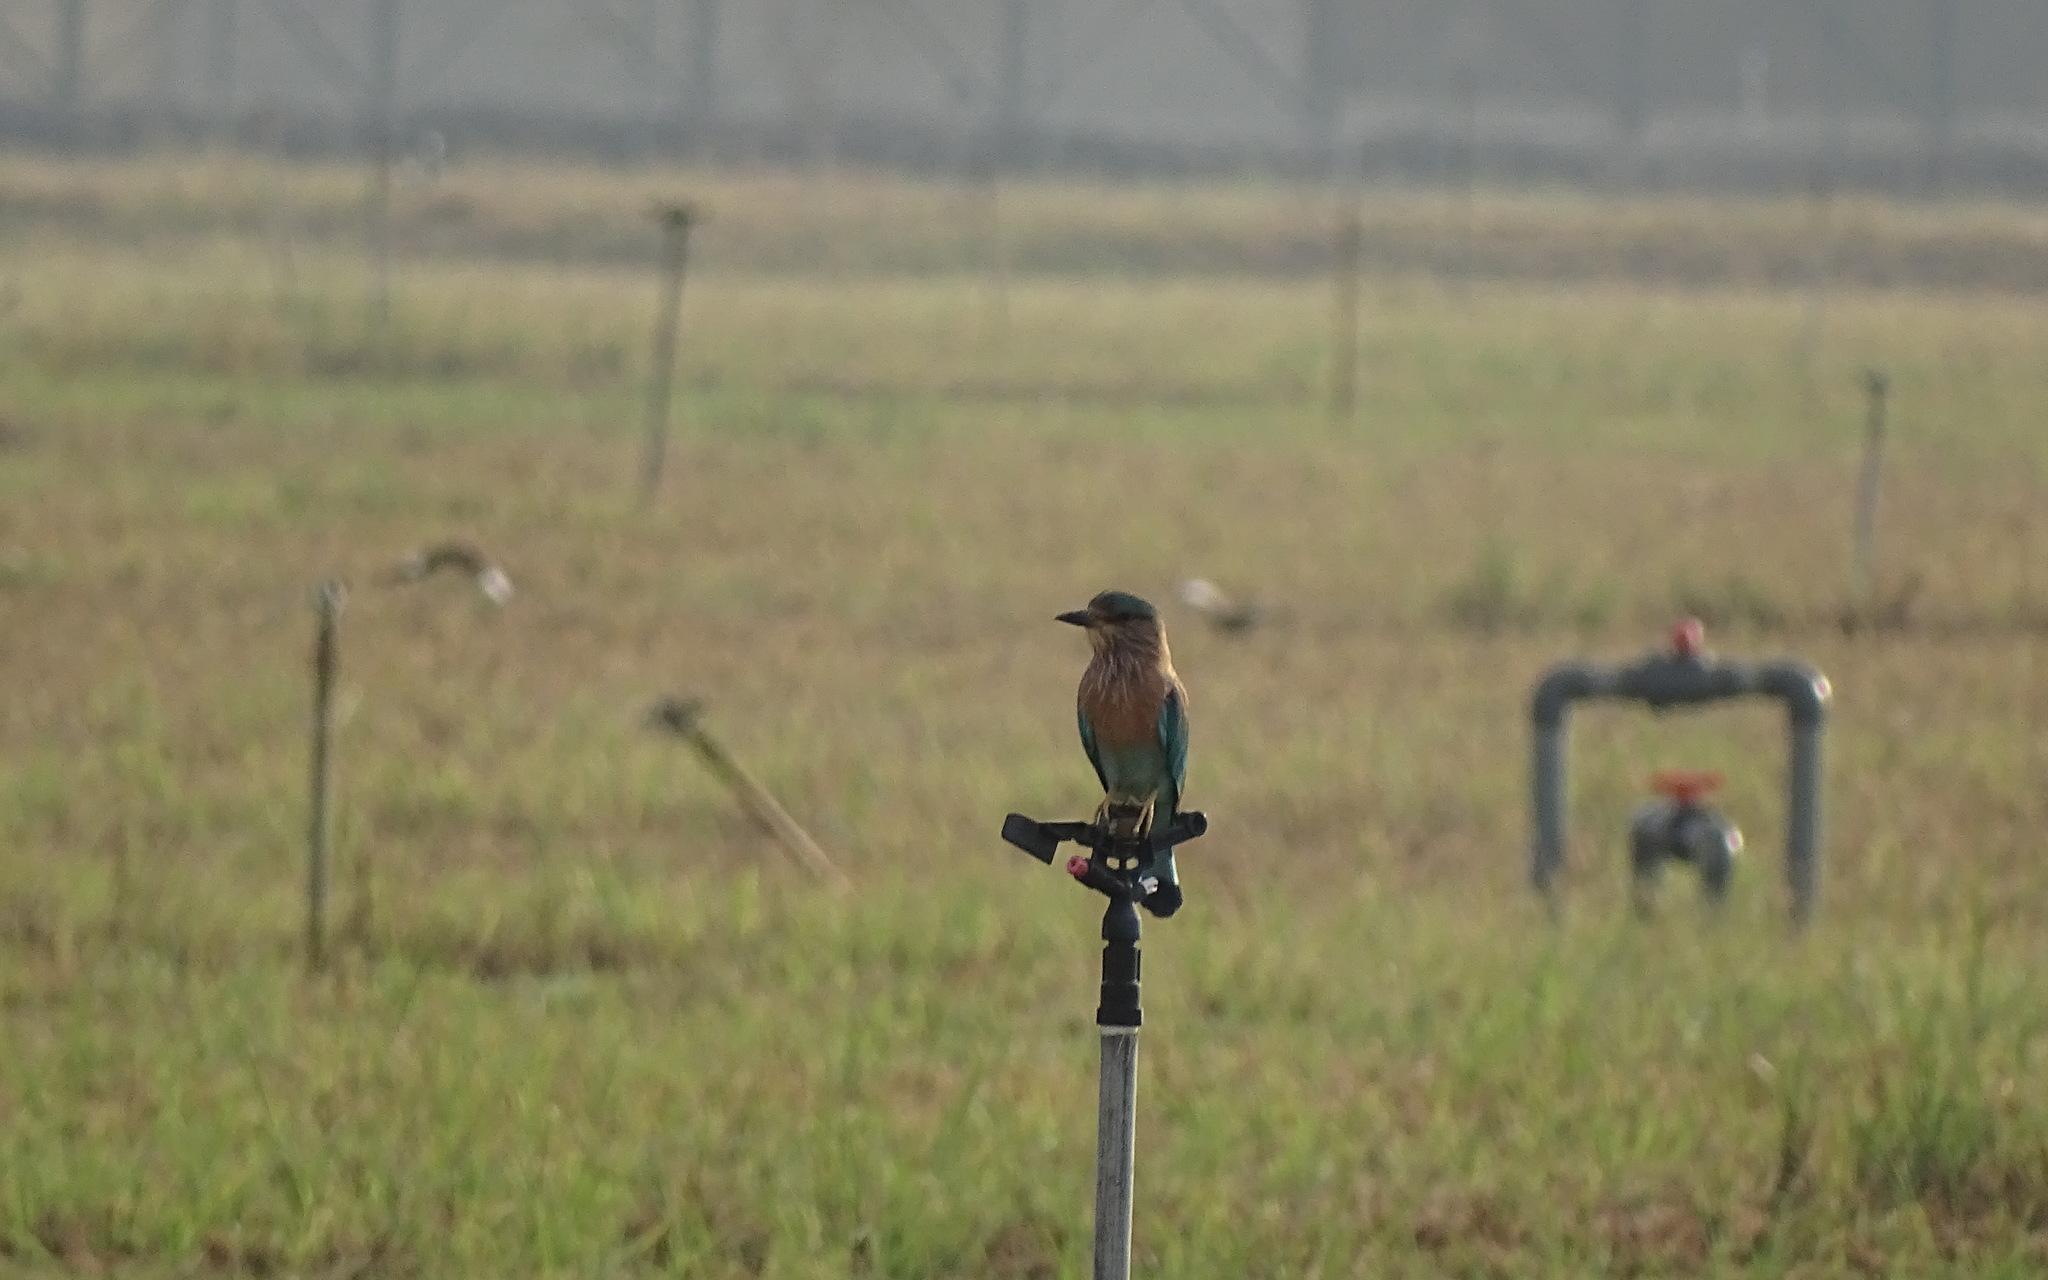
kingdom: Animalia
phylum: Chordata
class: Aves
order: Coraciiformes
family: Coraciidae
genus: Coracias
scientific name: Coracias benghalensis
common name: Indian roller
